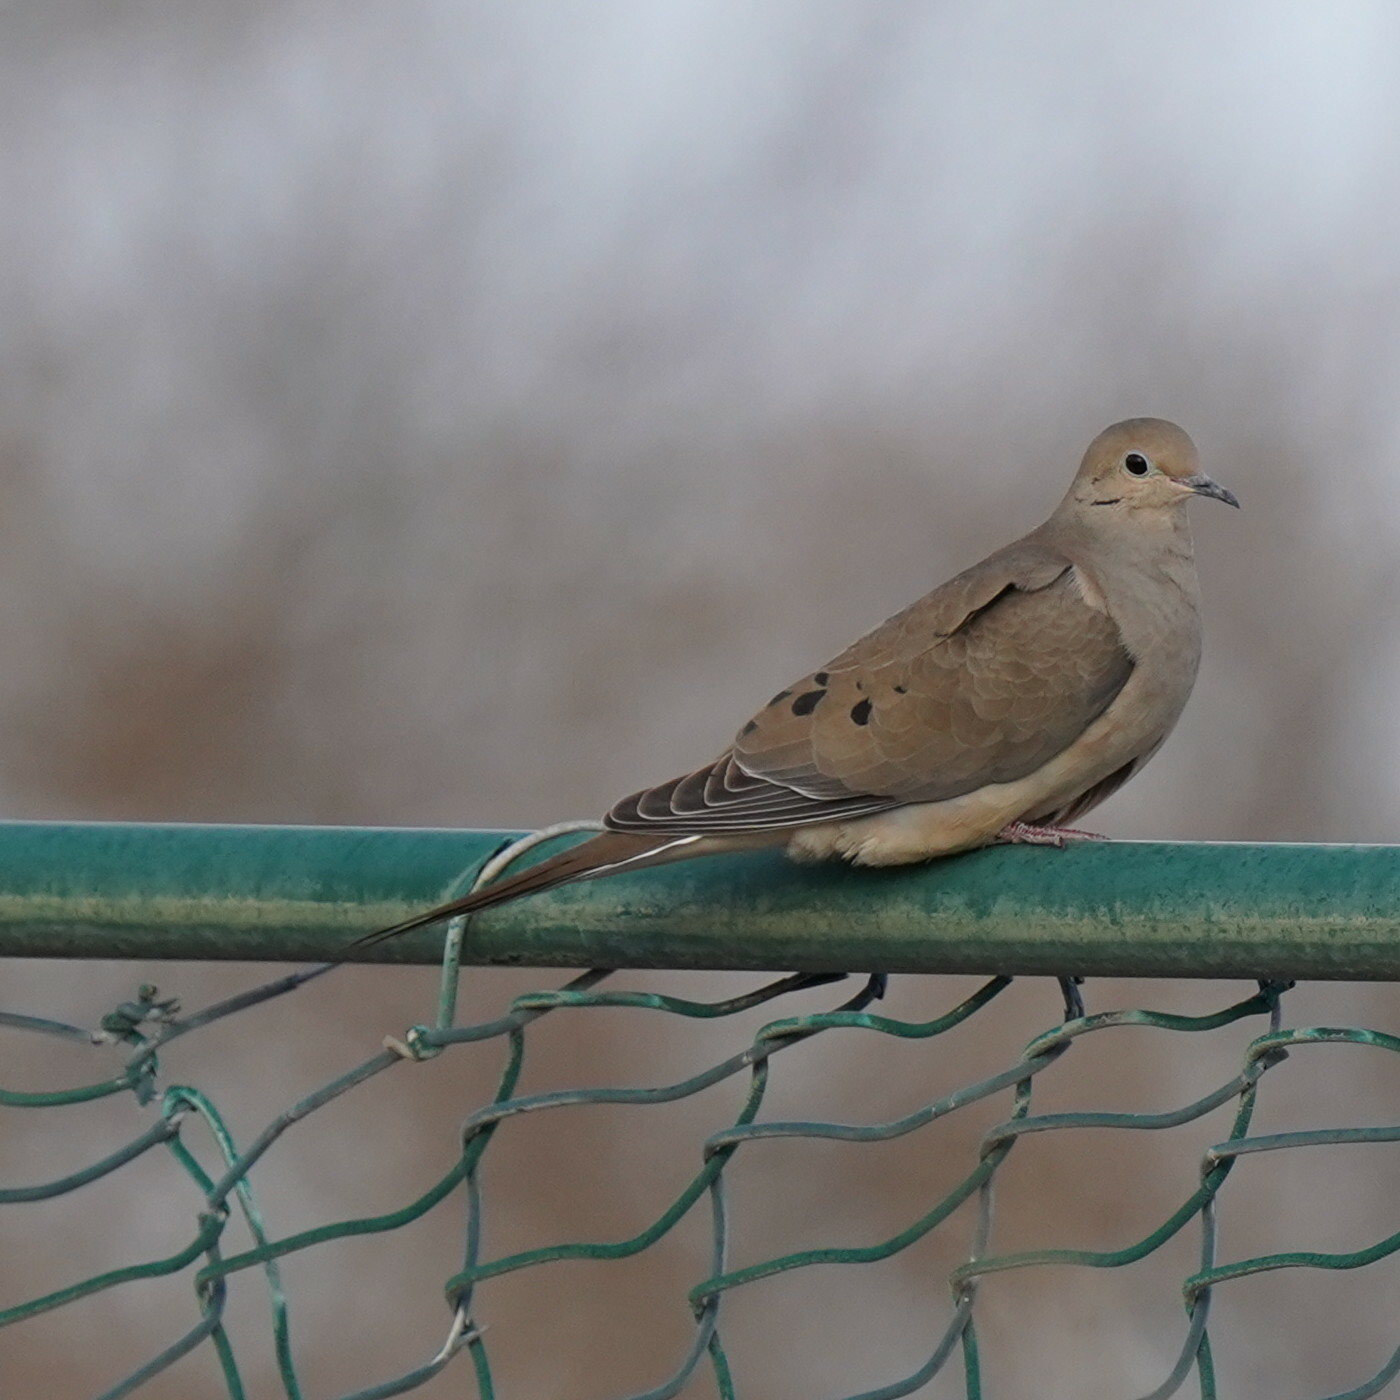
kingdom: Animalia
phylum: Chordata
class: Aves
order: Columbiformes
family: Columbidae
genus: Zenaida
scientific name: Zenaida macroura
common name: Mourning dove
